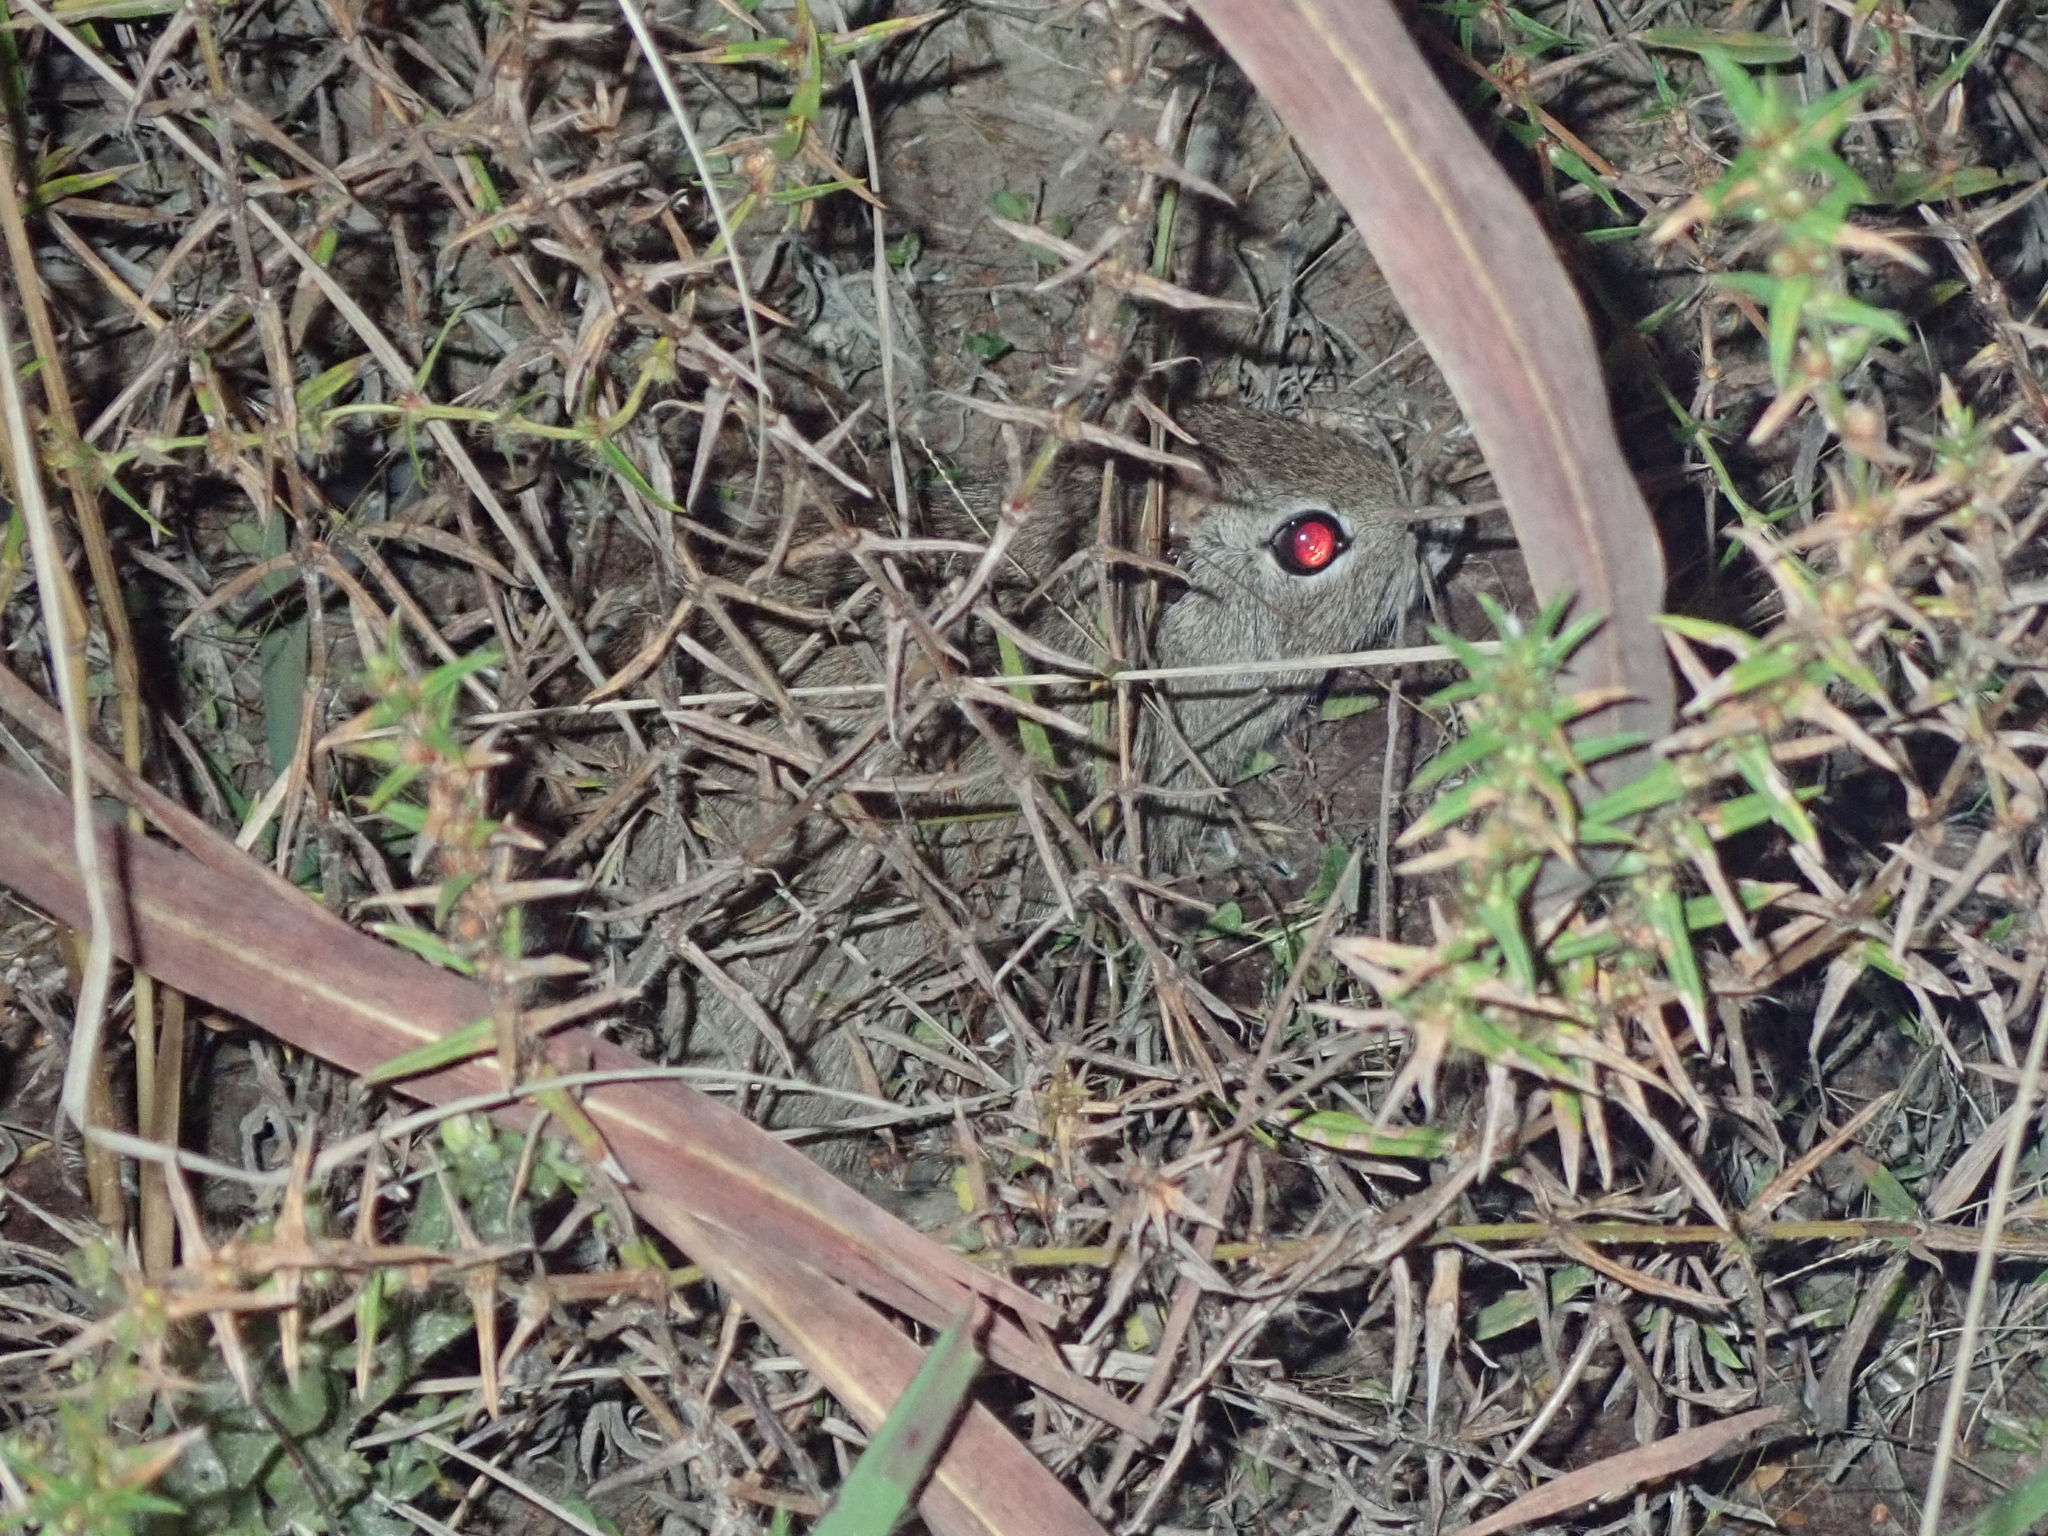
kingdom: Animalia
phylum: Chordata
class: Mammalia
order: Rodentia
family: Caviidae
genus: Galea
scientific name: Galea spixii
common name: Spix's yellow-toothed cavy
